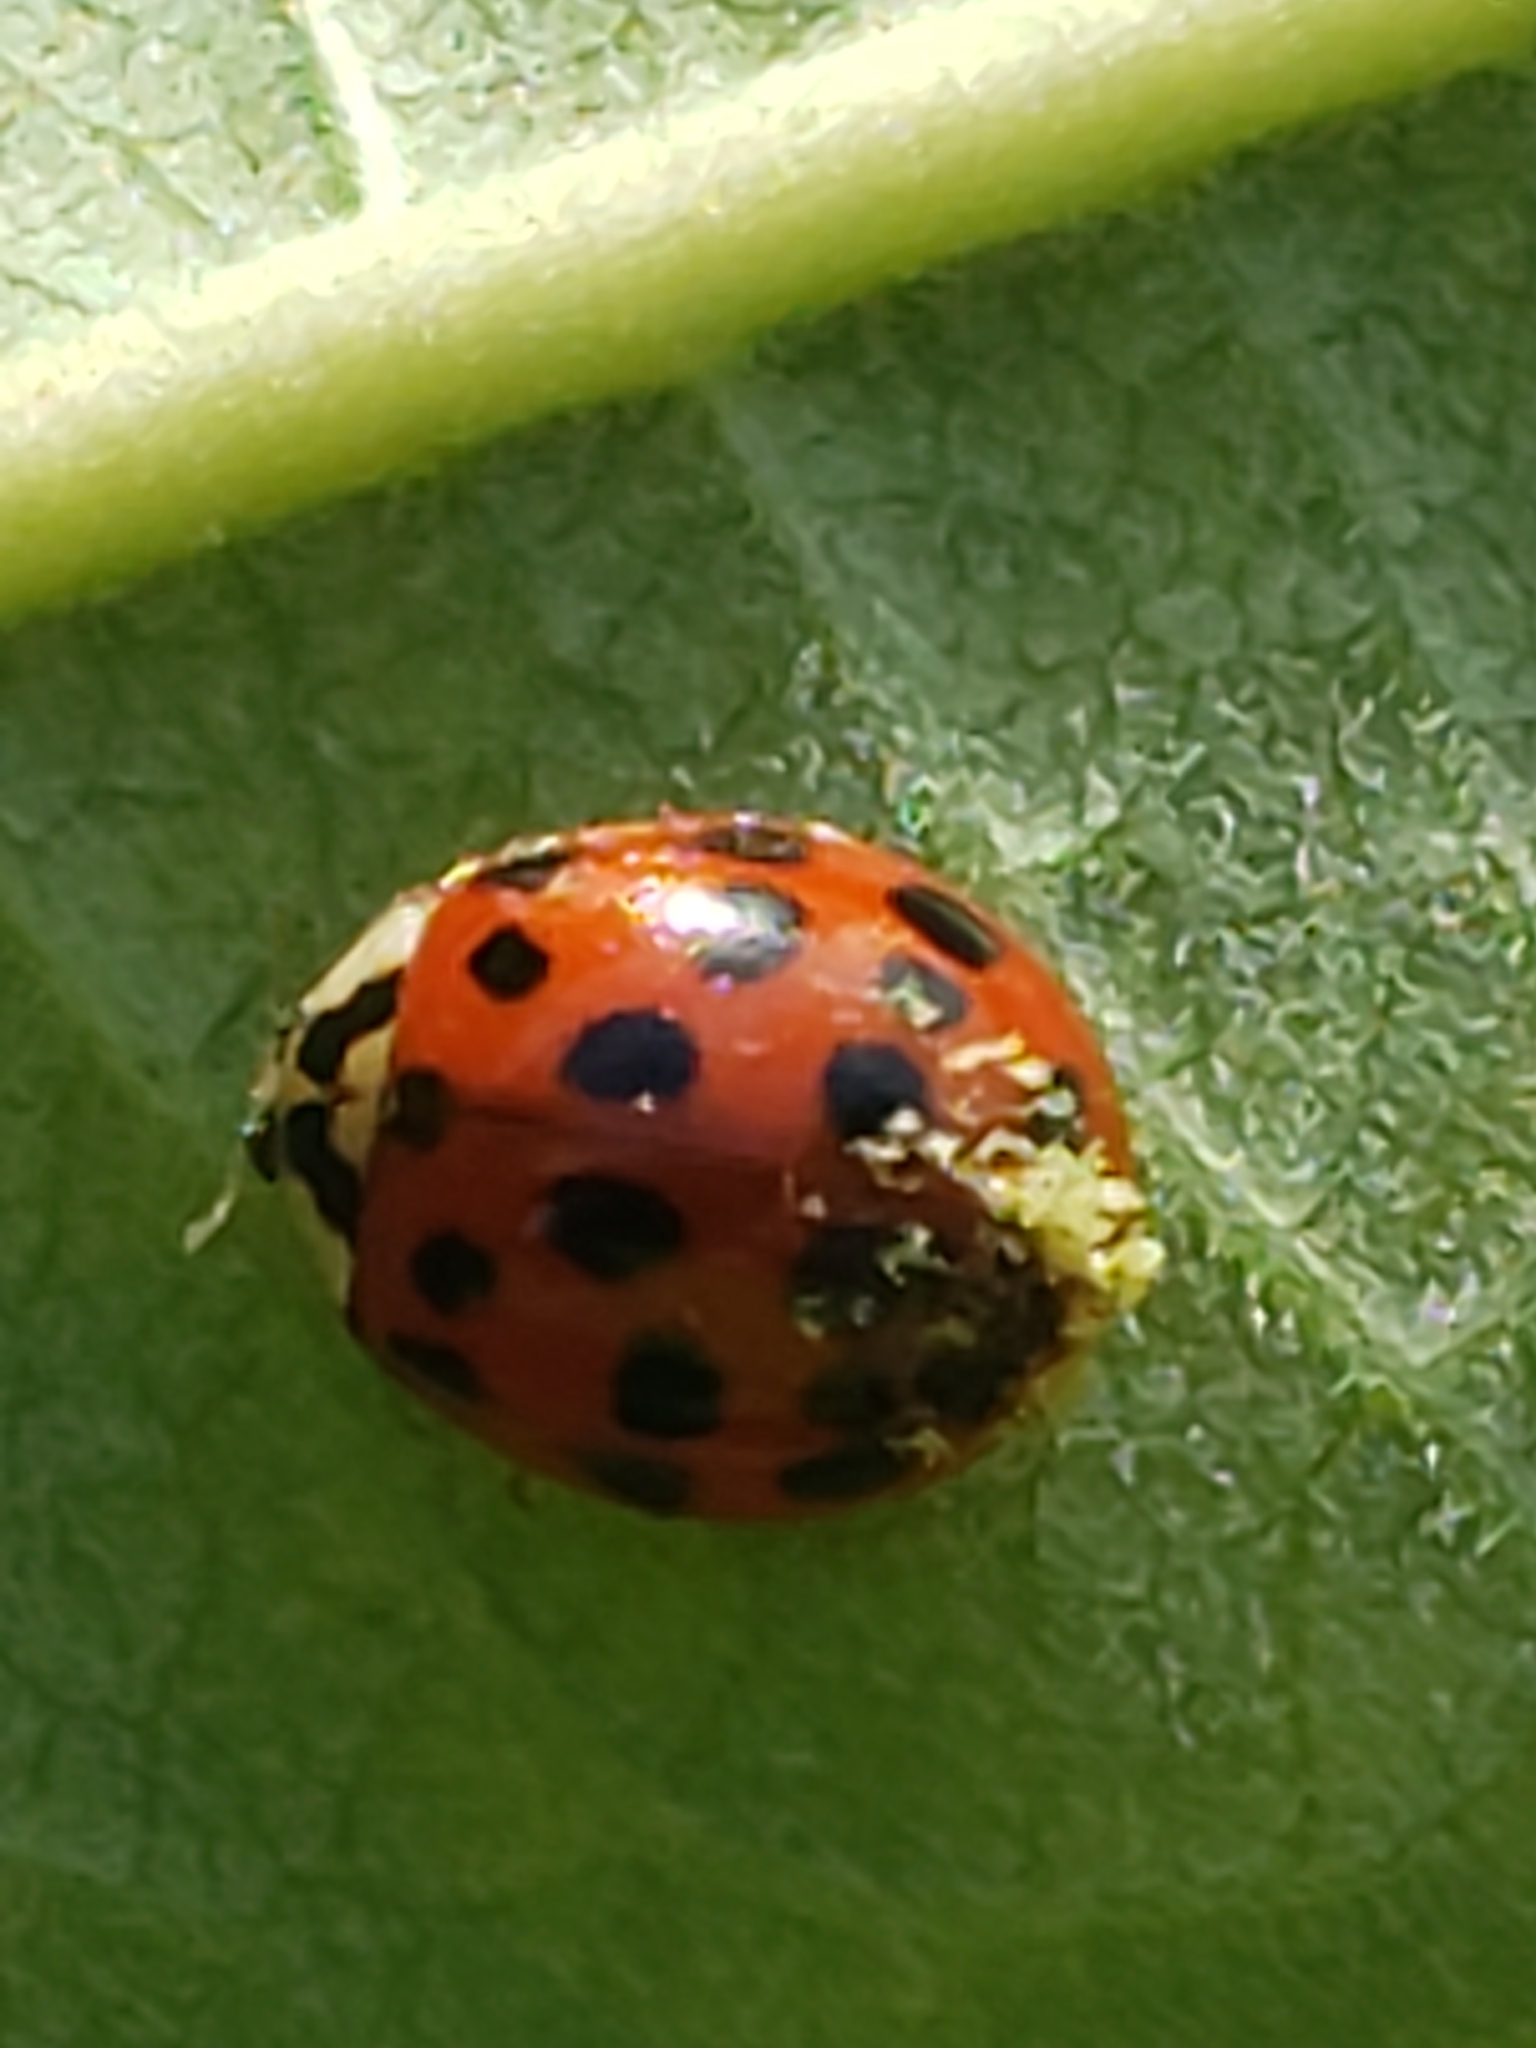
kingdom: Animalia
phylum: Arthropoda
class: Insecta
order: Coleoptera
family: Coccinellidae
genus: Harmonia
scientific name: Harmonia axyridis
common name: Harlequin ladybird
